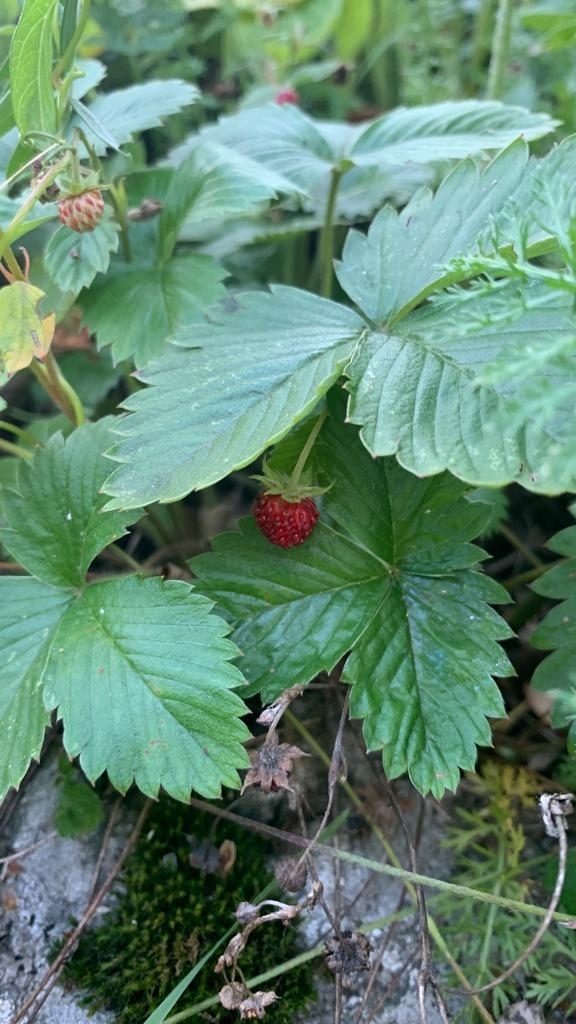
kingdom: Plantae
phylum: Tracheophyta
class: Magnoliopsida
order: Rosales
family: Rosaceae
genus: Fragaria
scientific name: Fragaria vesca
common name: Wild strawberry
